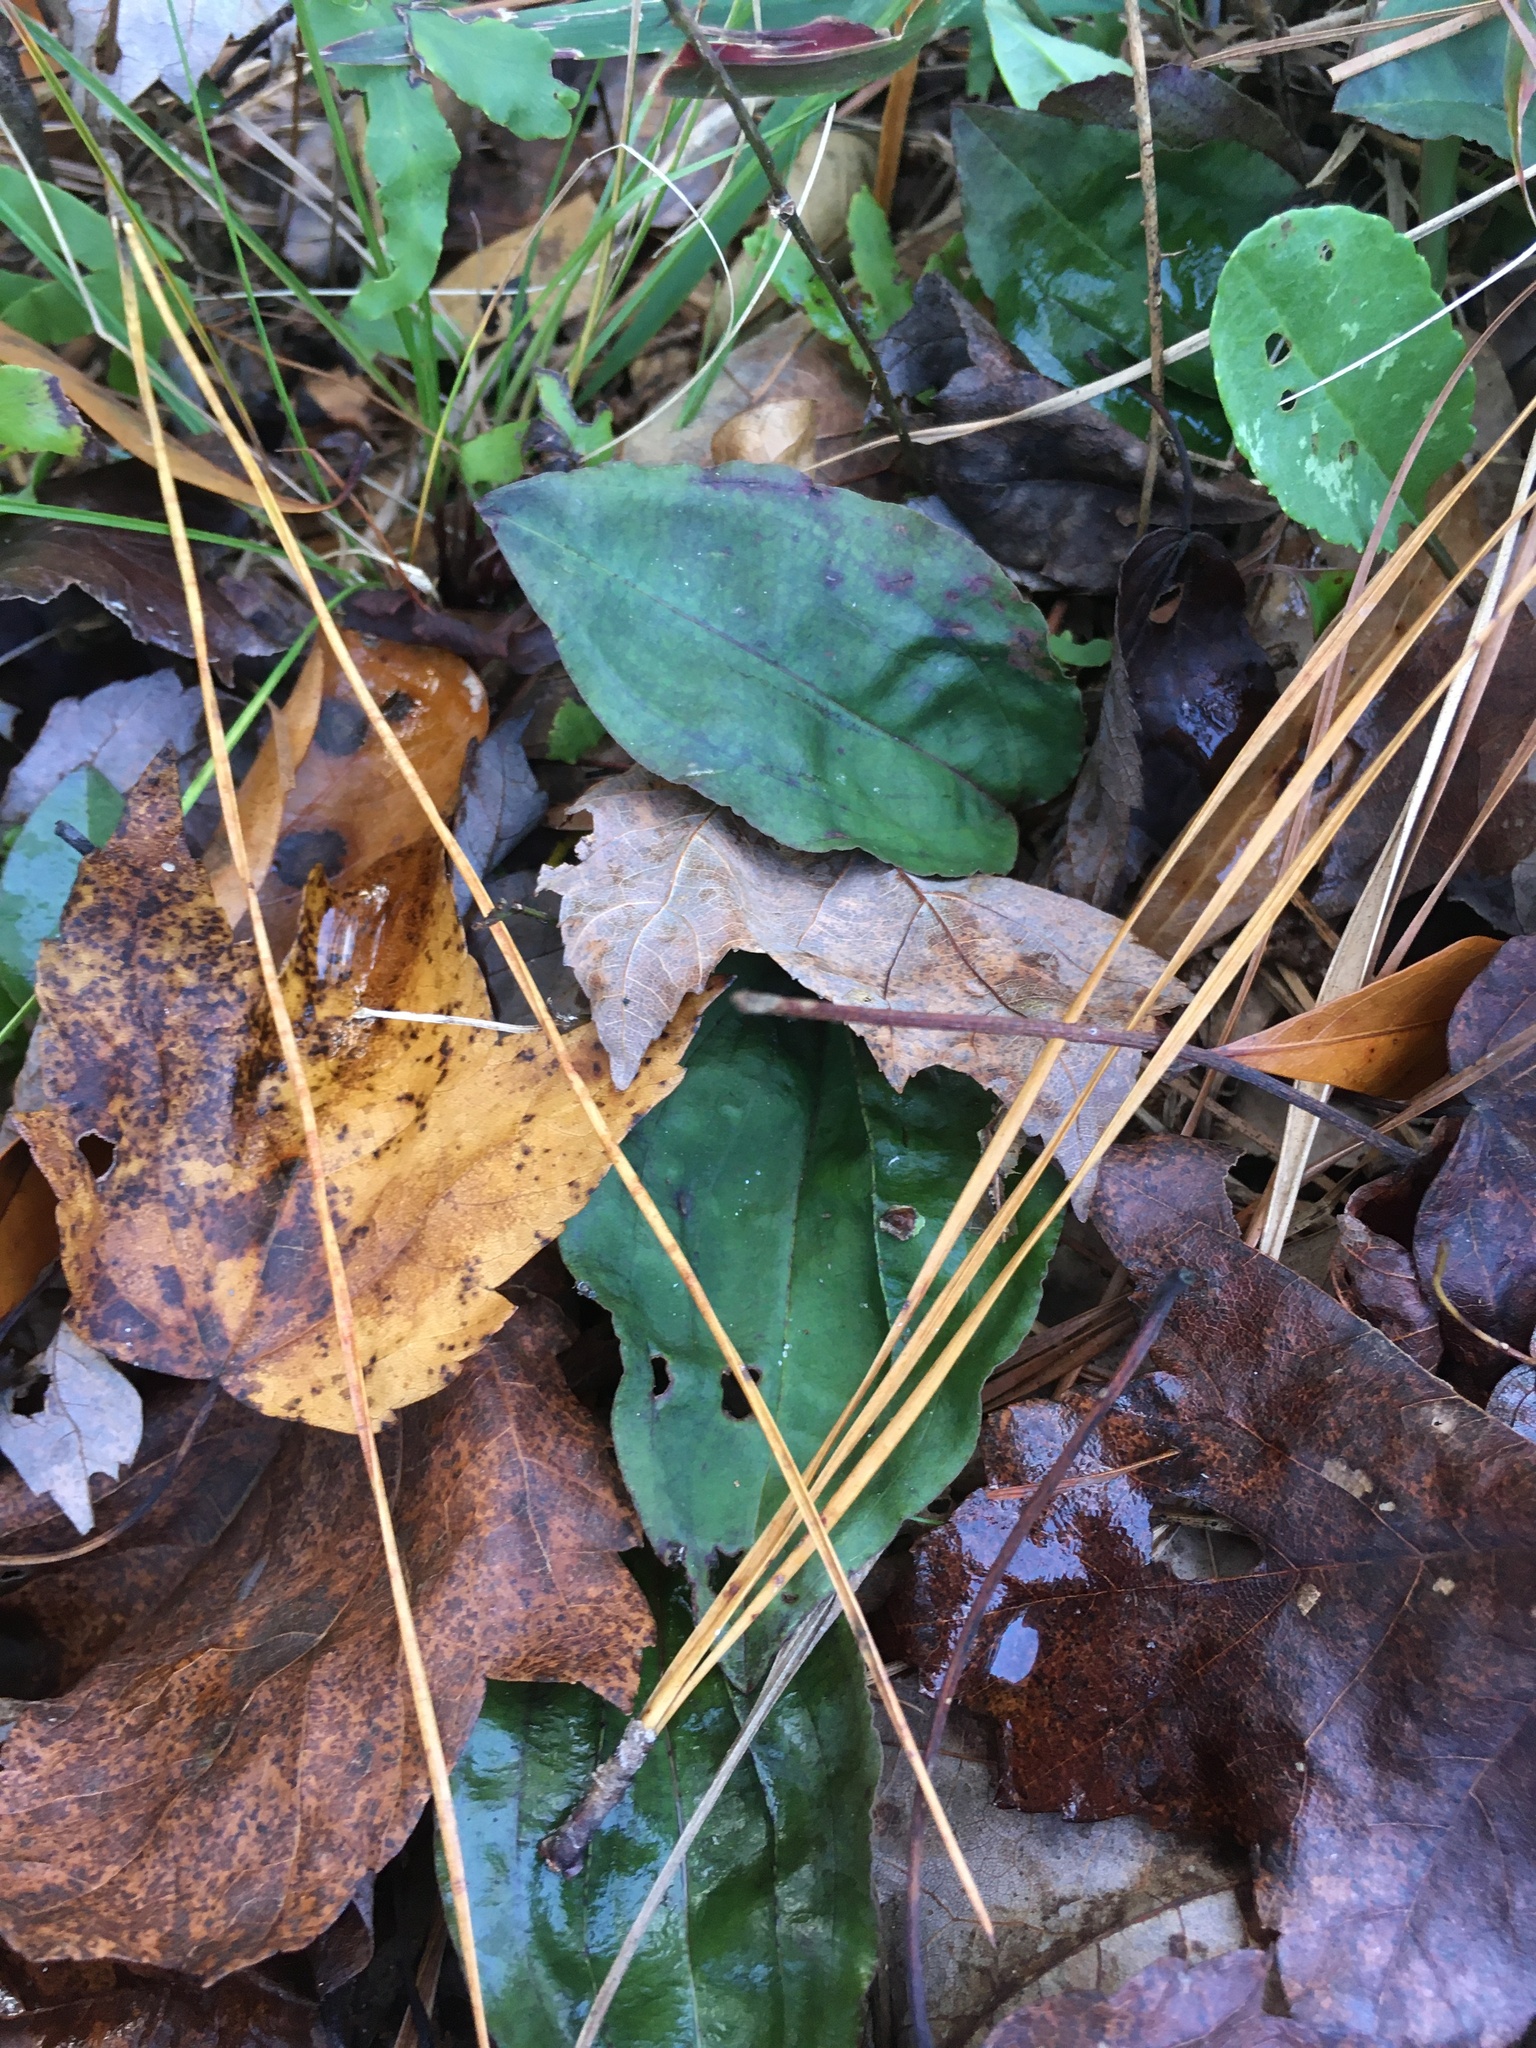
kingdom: Plantae
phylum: Tracheophyta
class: Liliopsida
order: Asparagales
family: Orchidaceae
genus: Tipularia
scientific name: Tipularia discolor
